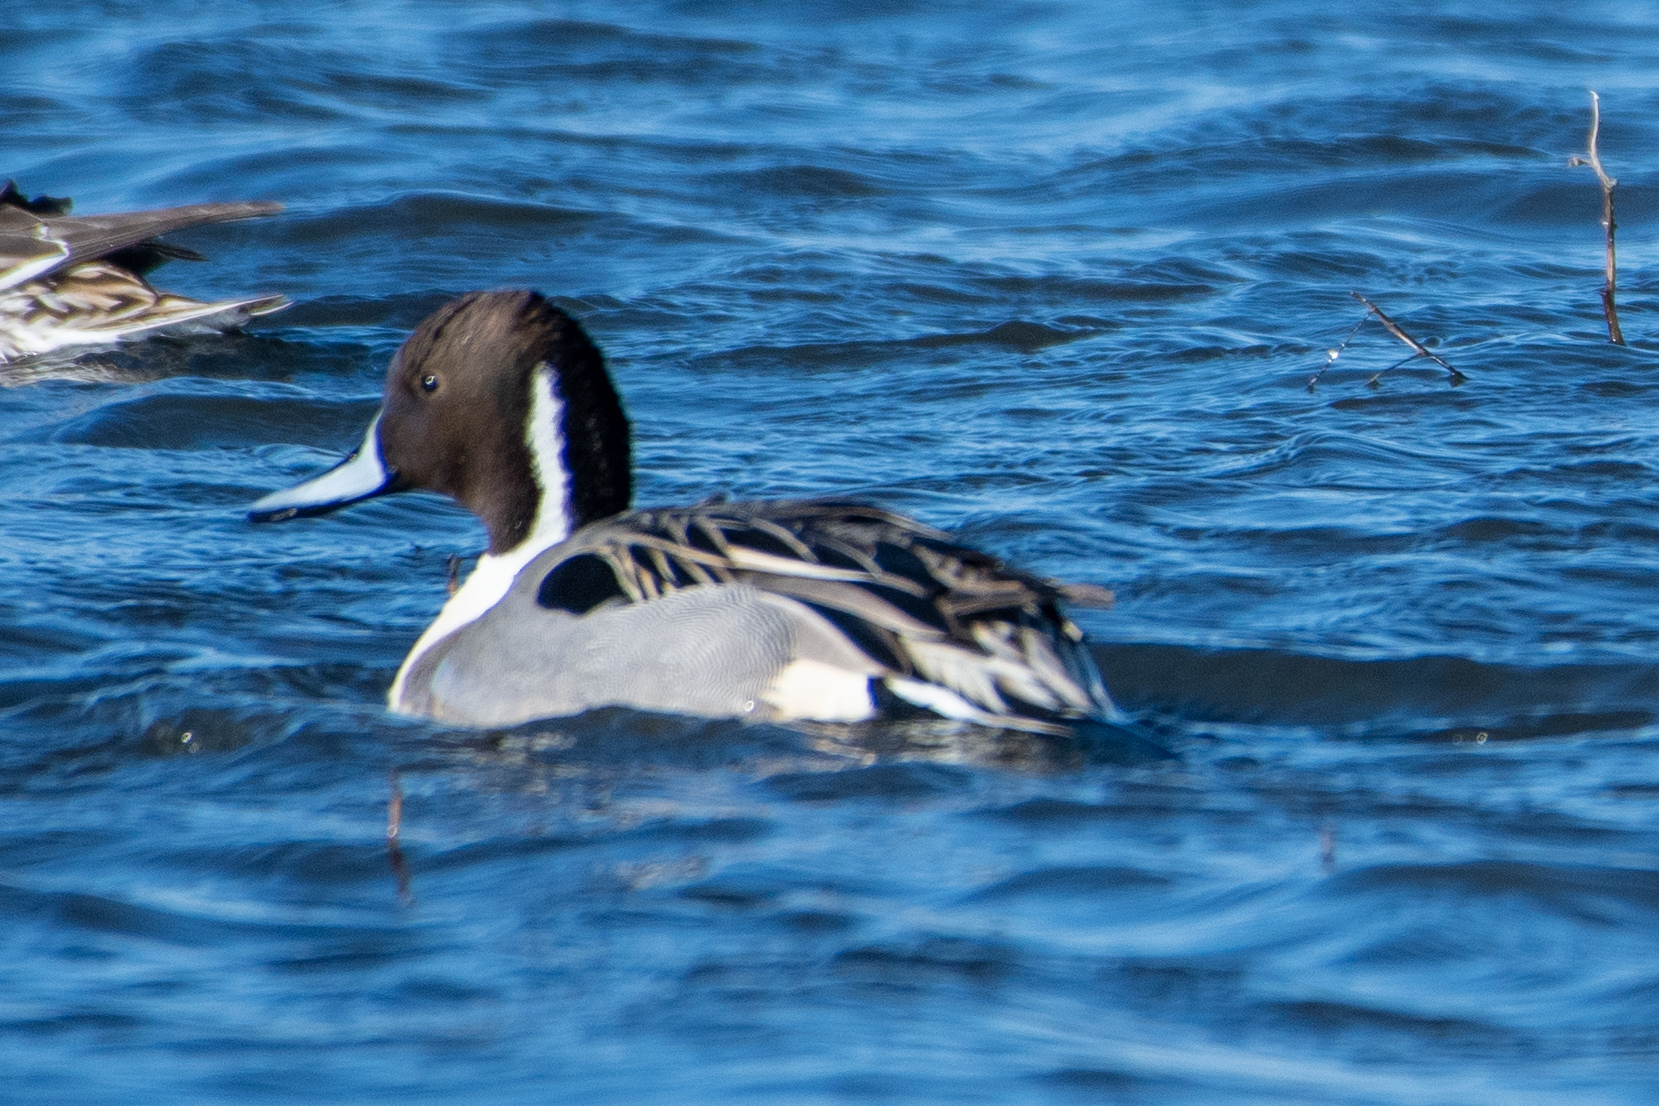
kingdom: Animalia
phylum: Chordata
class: Aves
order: Anseriformes
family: Anatidae
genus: Anas
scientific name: Anas acuta
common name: Northern pintail
